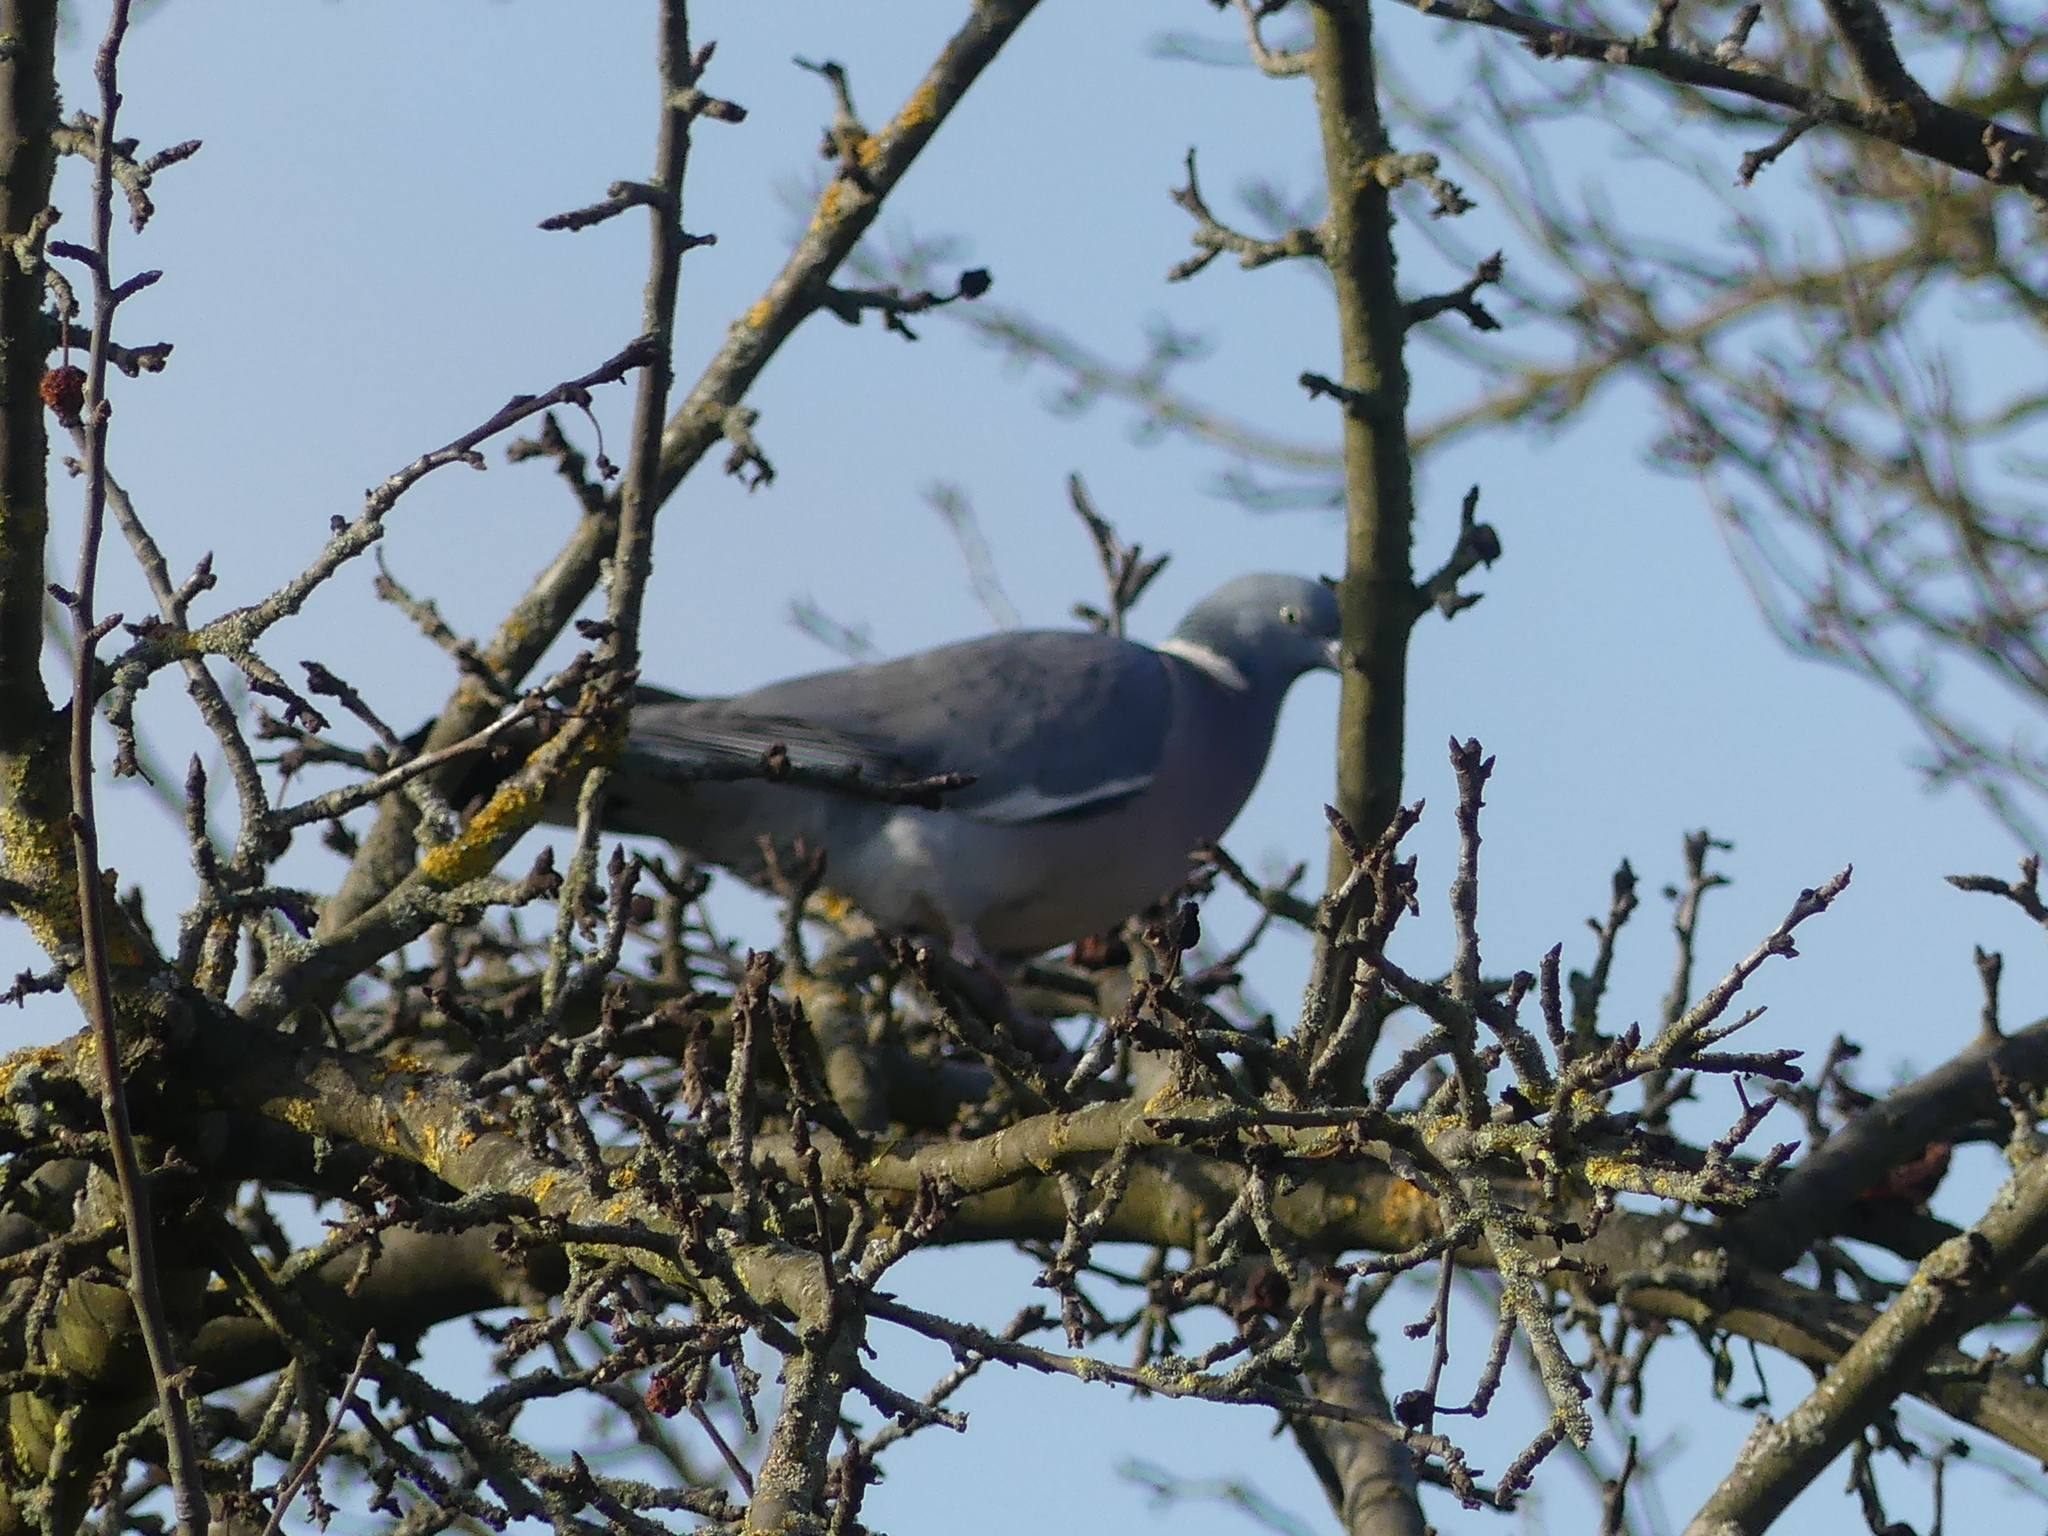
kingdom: Animalia
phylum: Chordata
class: Aves
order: Columbiformes
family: Columbidae
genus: Columba
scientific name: Columba palumbus
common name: Common wood pigeon
